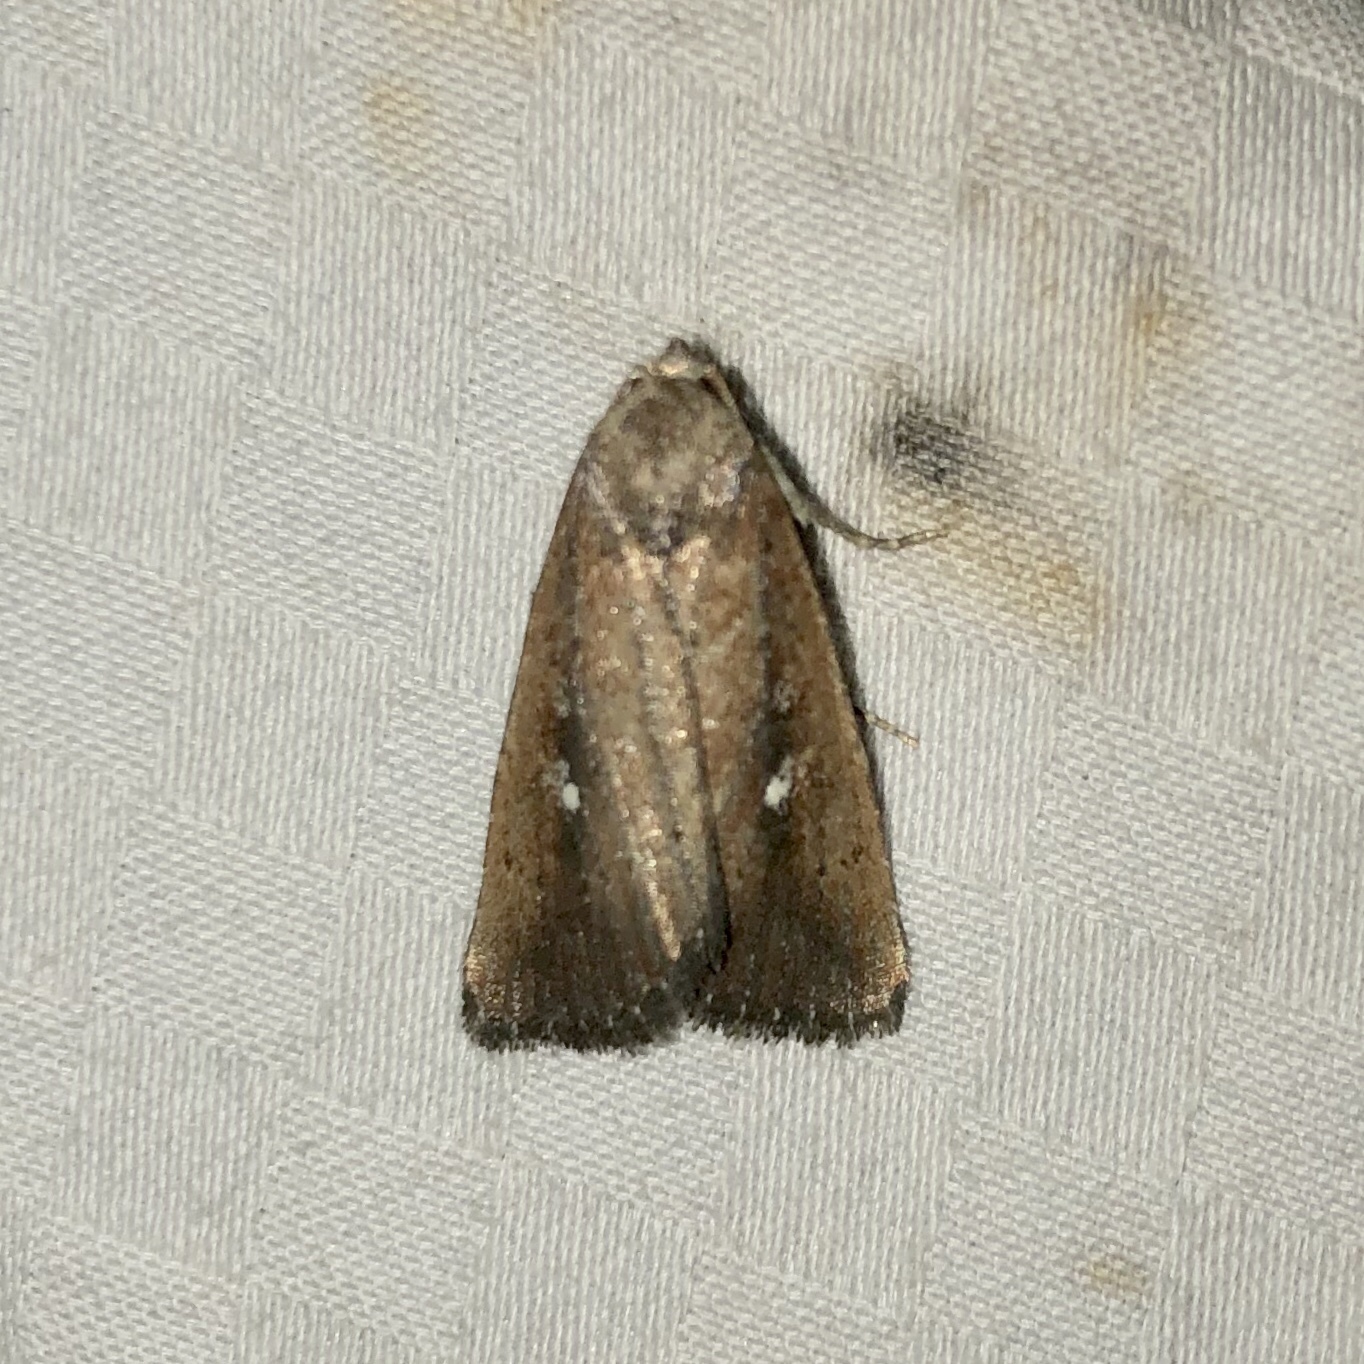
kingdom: Animalia
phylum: Arthropoda
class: Insecta
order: Lepidoptera
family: Noctuidae
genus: Condica
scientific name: Condica videns
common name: White-dotted groundling
